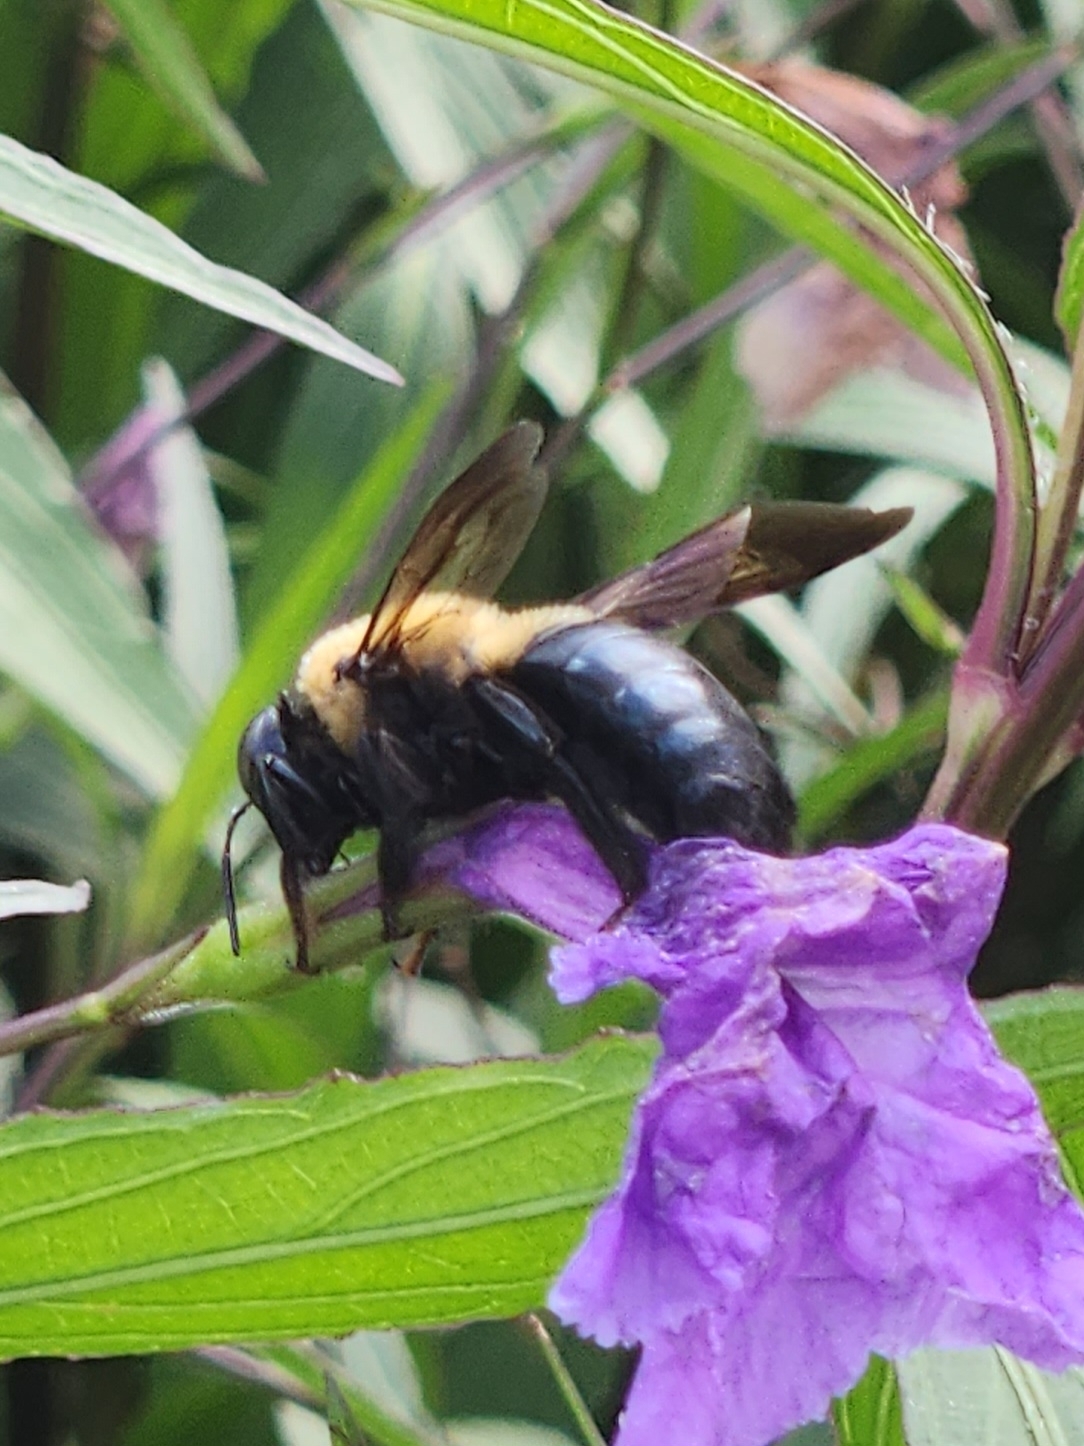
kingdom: Animalia
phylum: Arthropoda
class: Insecta
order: Hymenoptera
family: Apidae
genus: Xylocopa
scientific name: Xylocopa virginica
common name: Carpenter bee
